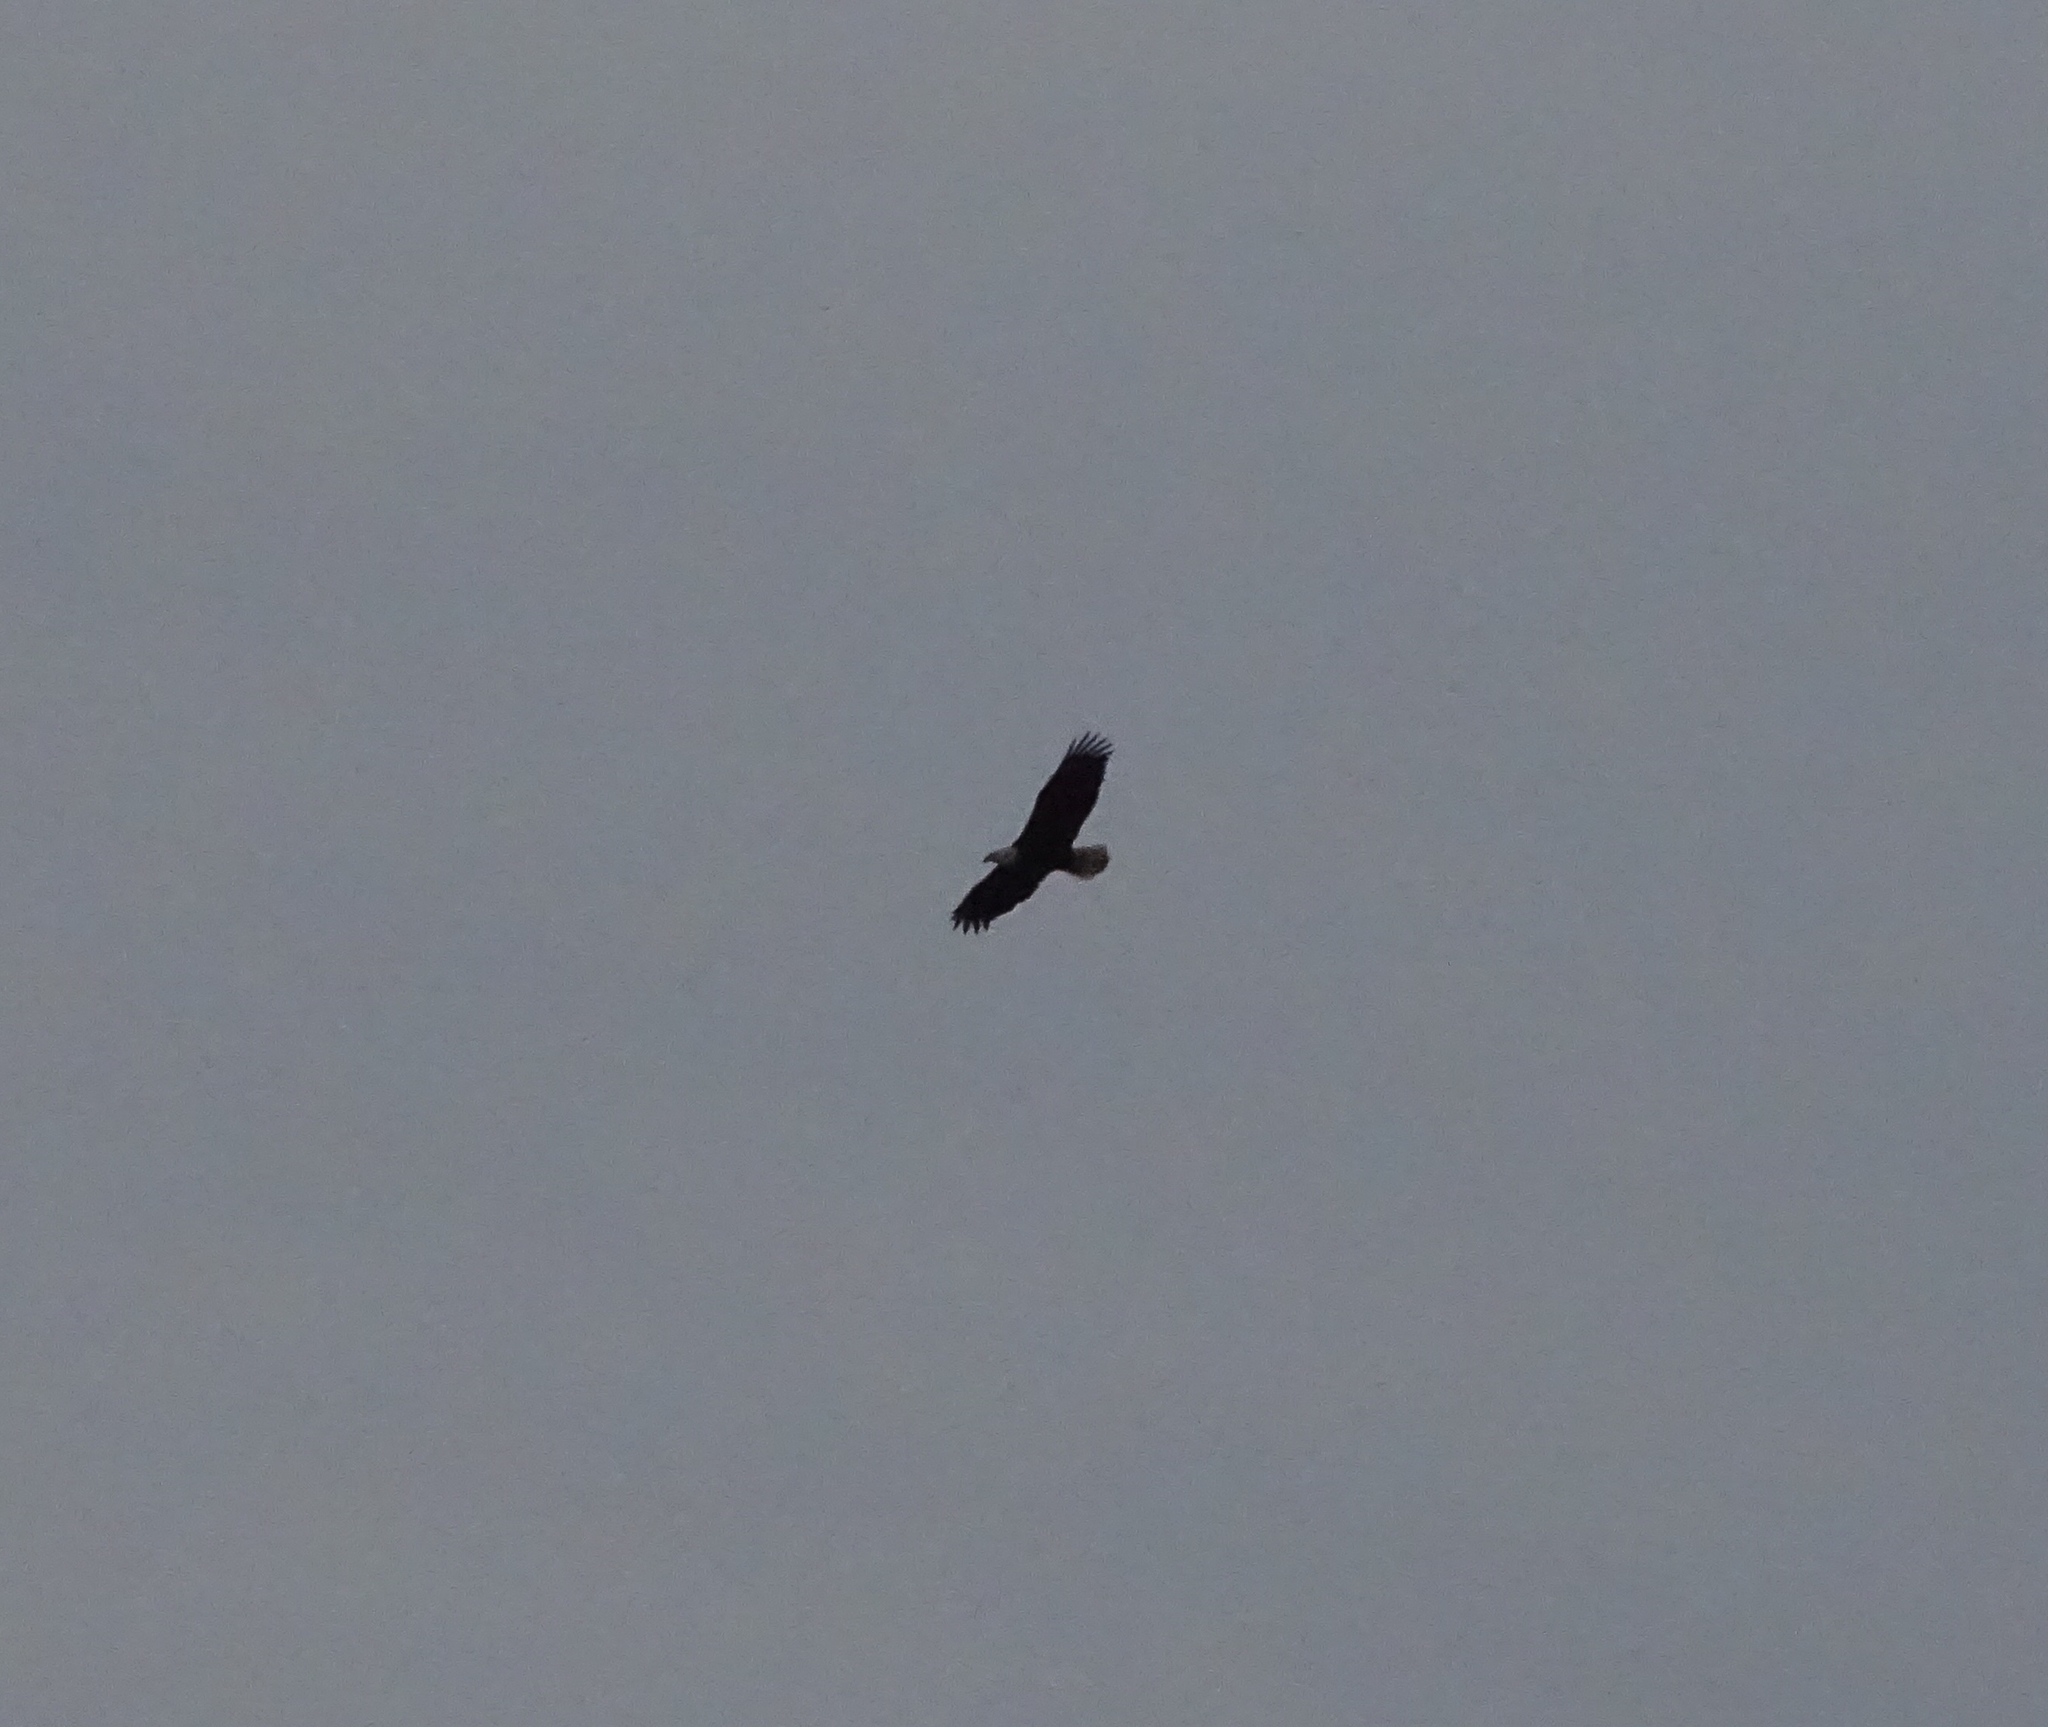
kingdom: Animalia
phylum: Chordata
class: Aves
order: Accipitriformes
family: Accipitridae
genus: Haliaeetus
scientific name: Haliaeetus leucocephalus
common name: Bald eagle
